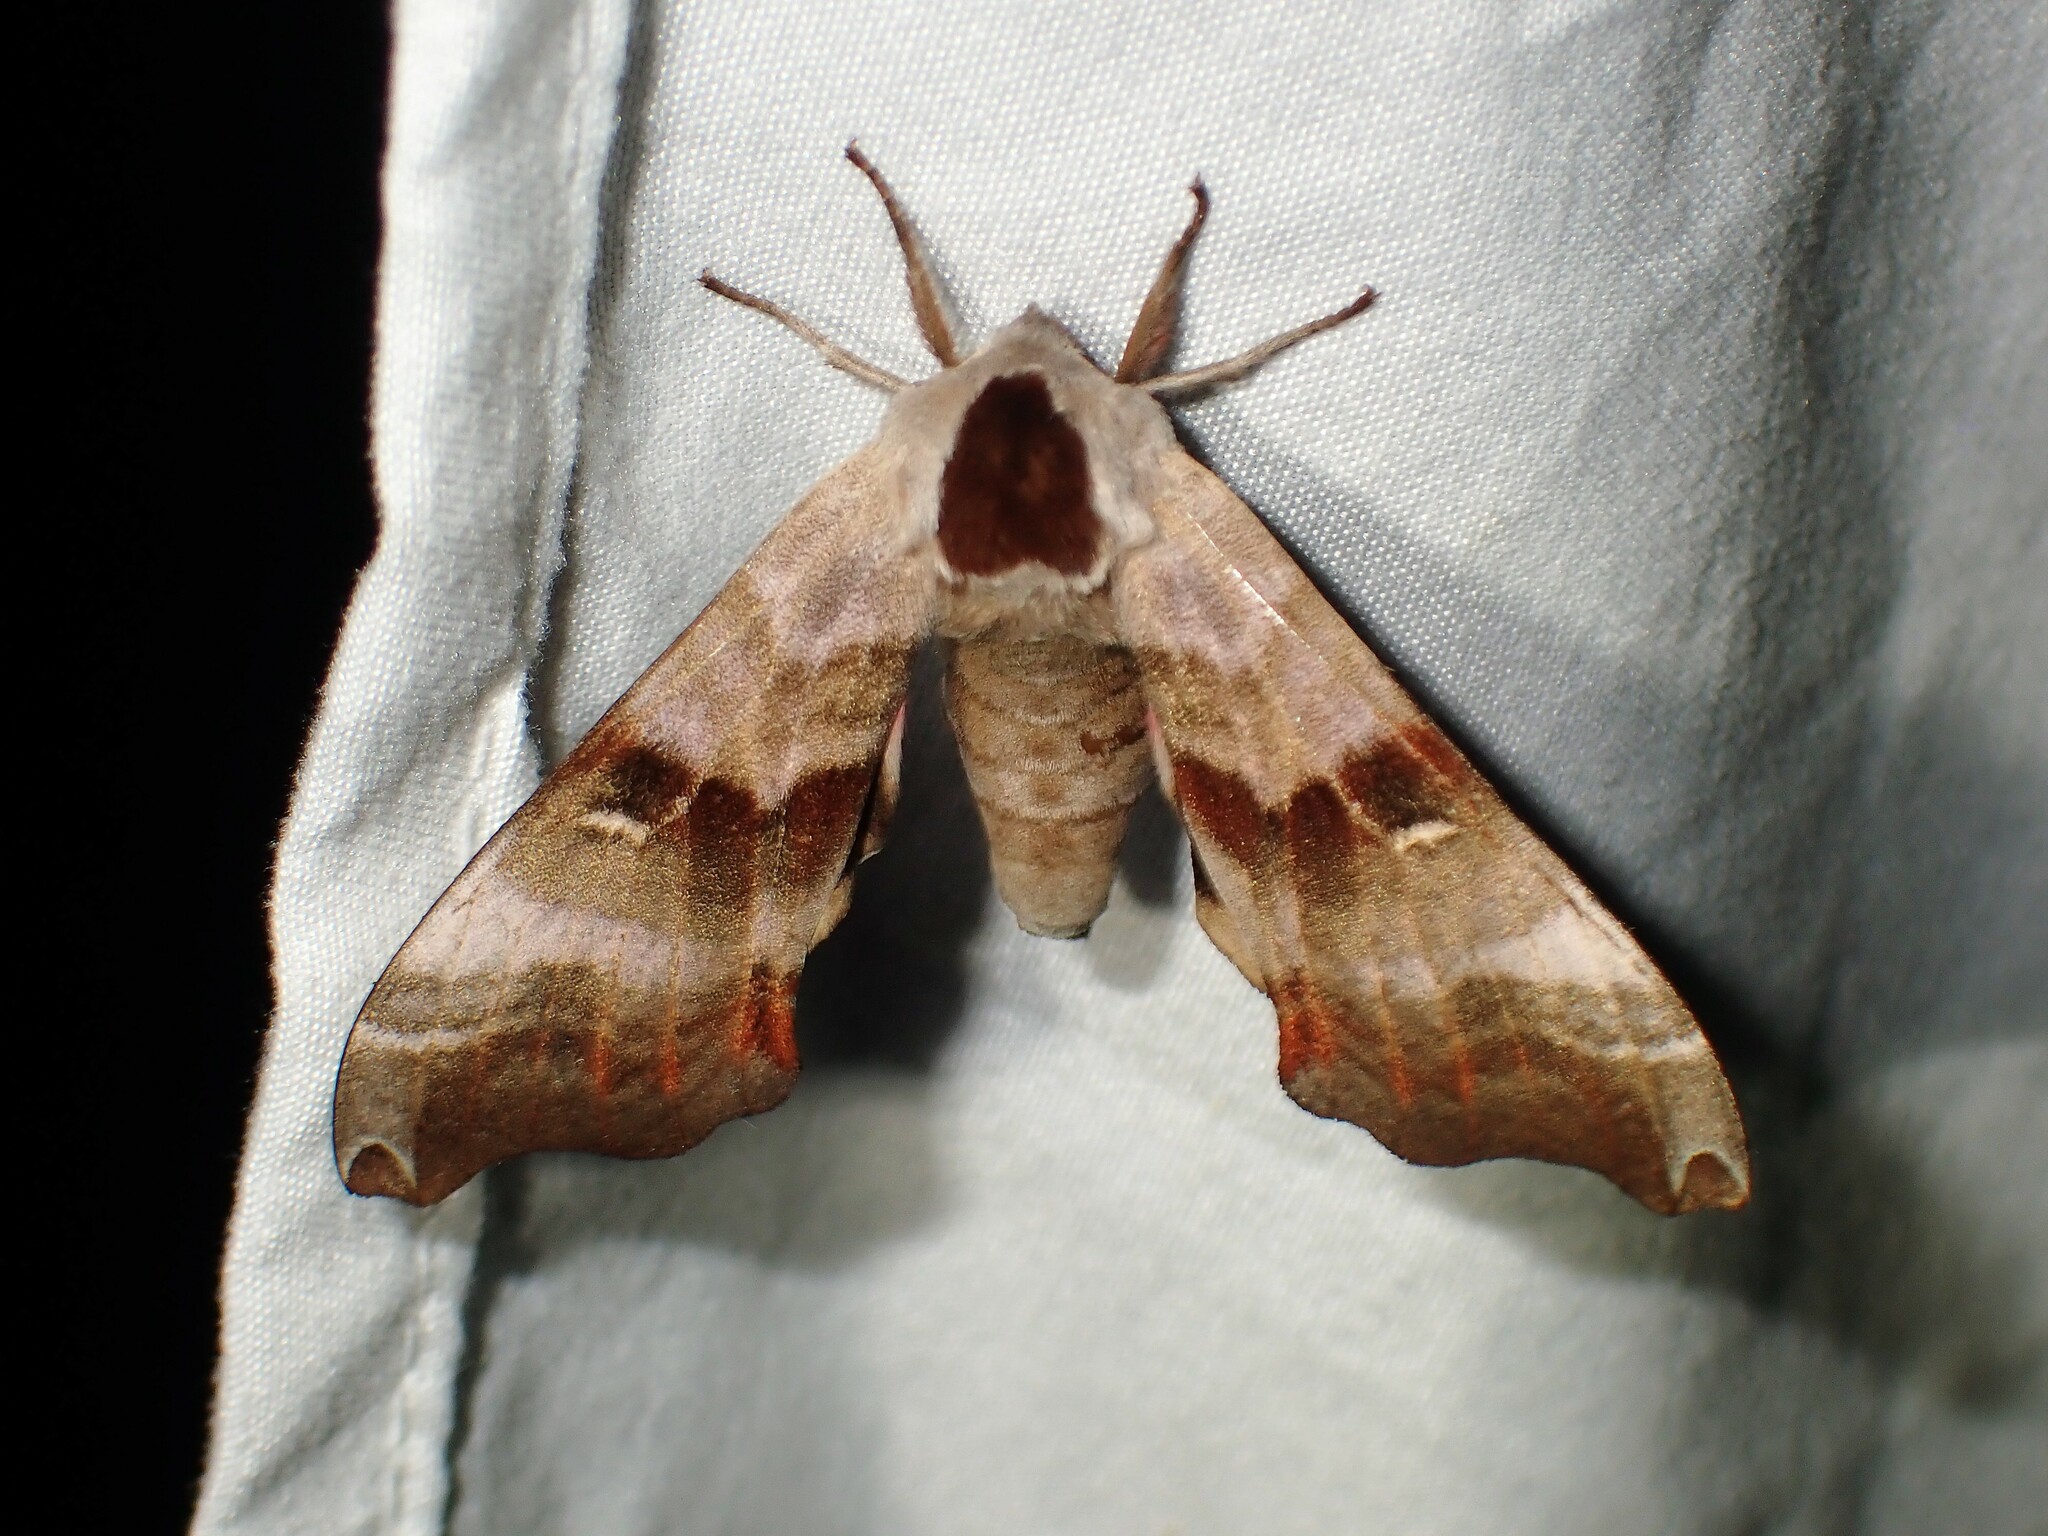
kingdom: Animalia
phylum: Arthropoda
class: Insecta
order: Lepidoptera
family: Sphingidae
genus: Smerinthus
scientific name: Smerinthus jamaicensis
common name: Twin spotted sphinx
